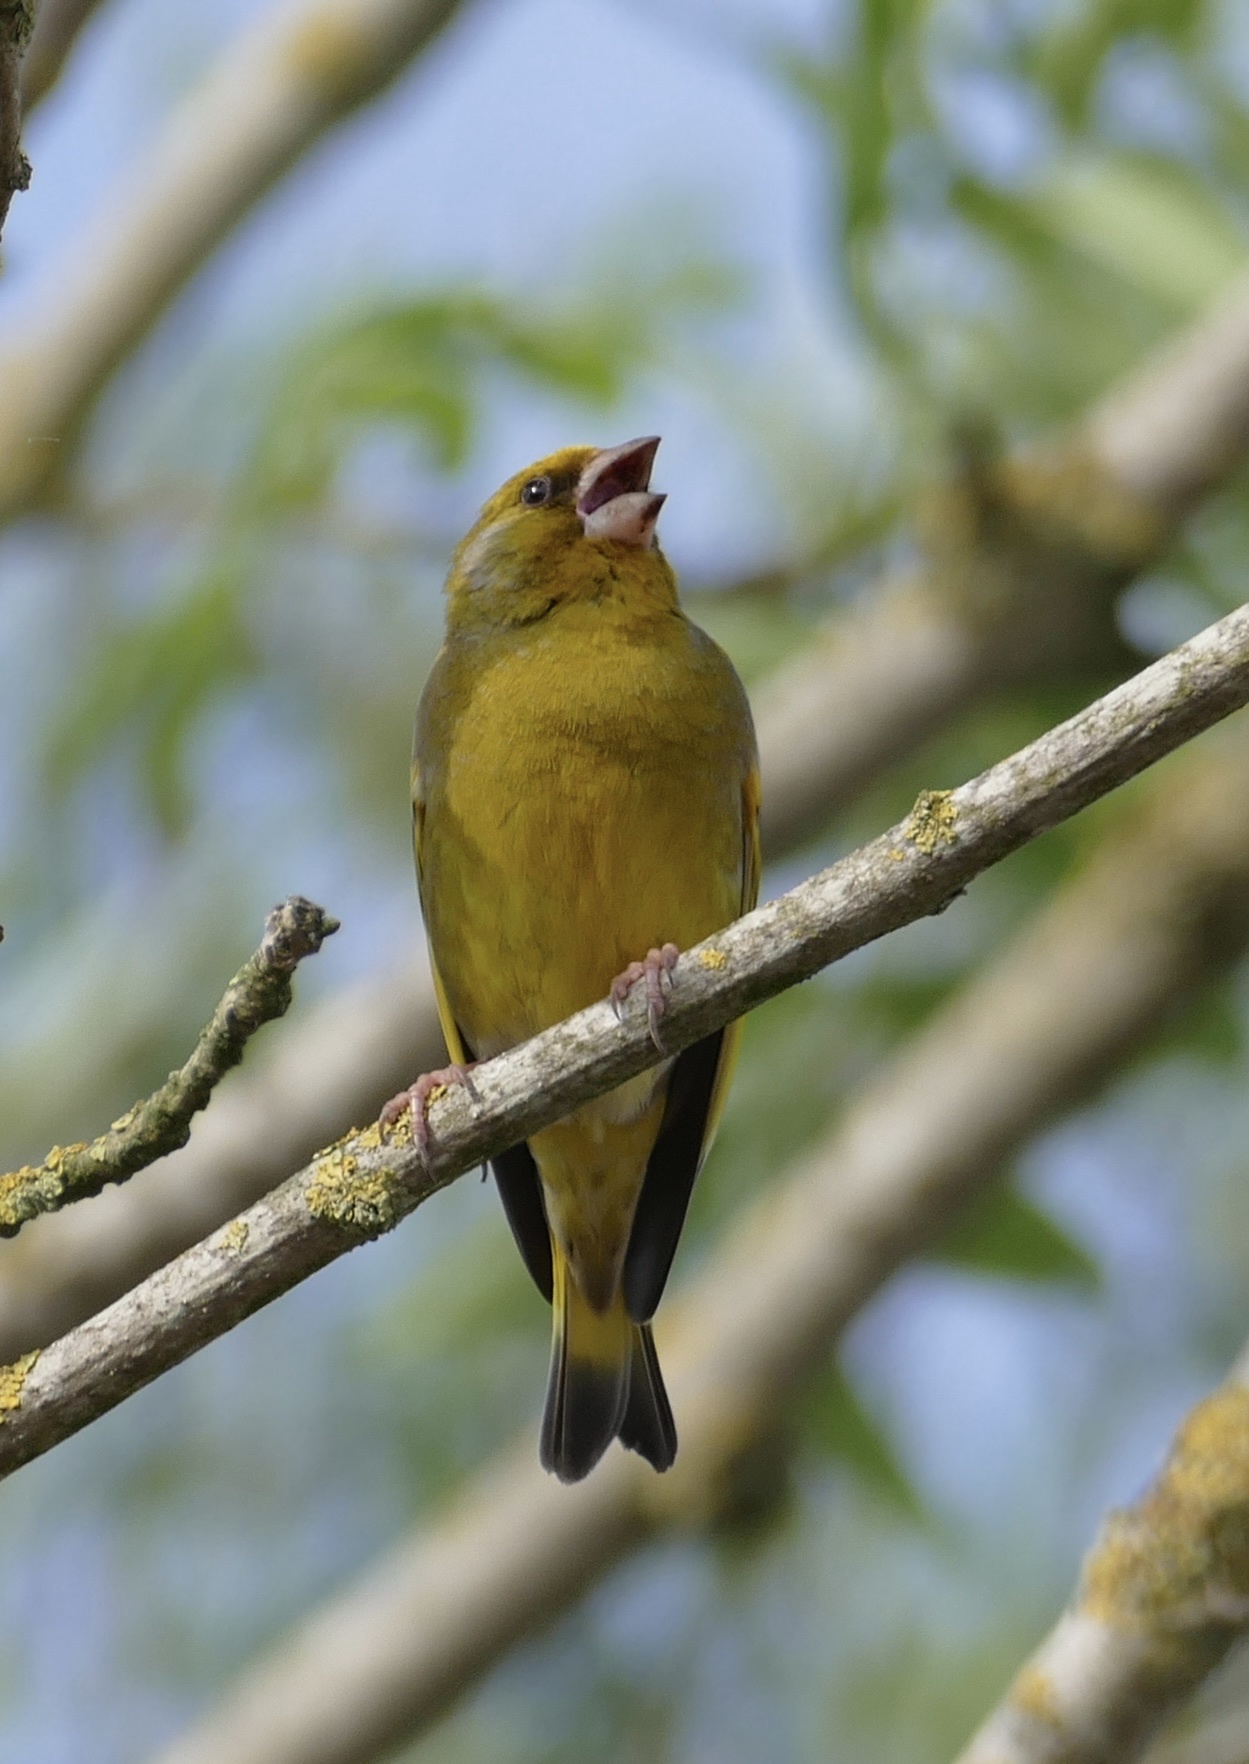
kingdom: Plantae
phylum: Tracheophyta
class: Liliopsida
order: Poales
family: Poaceae
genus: Chloris
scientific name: Chloris chloris
